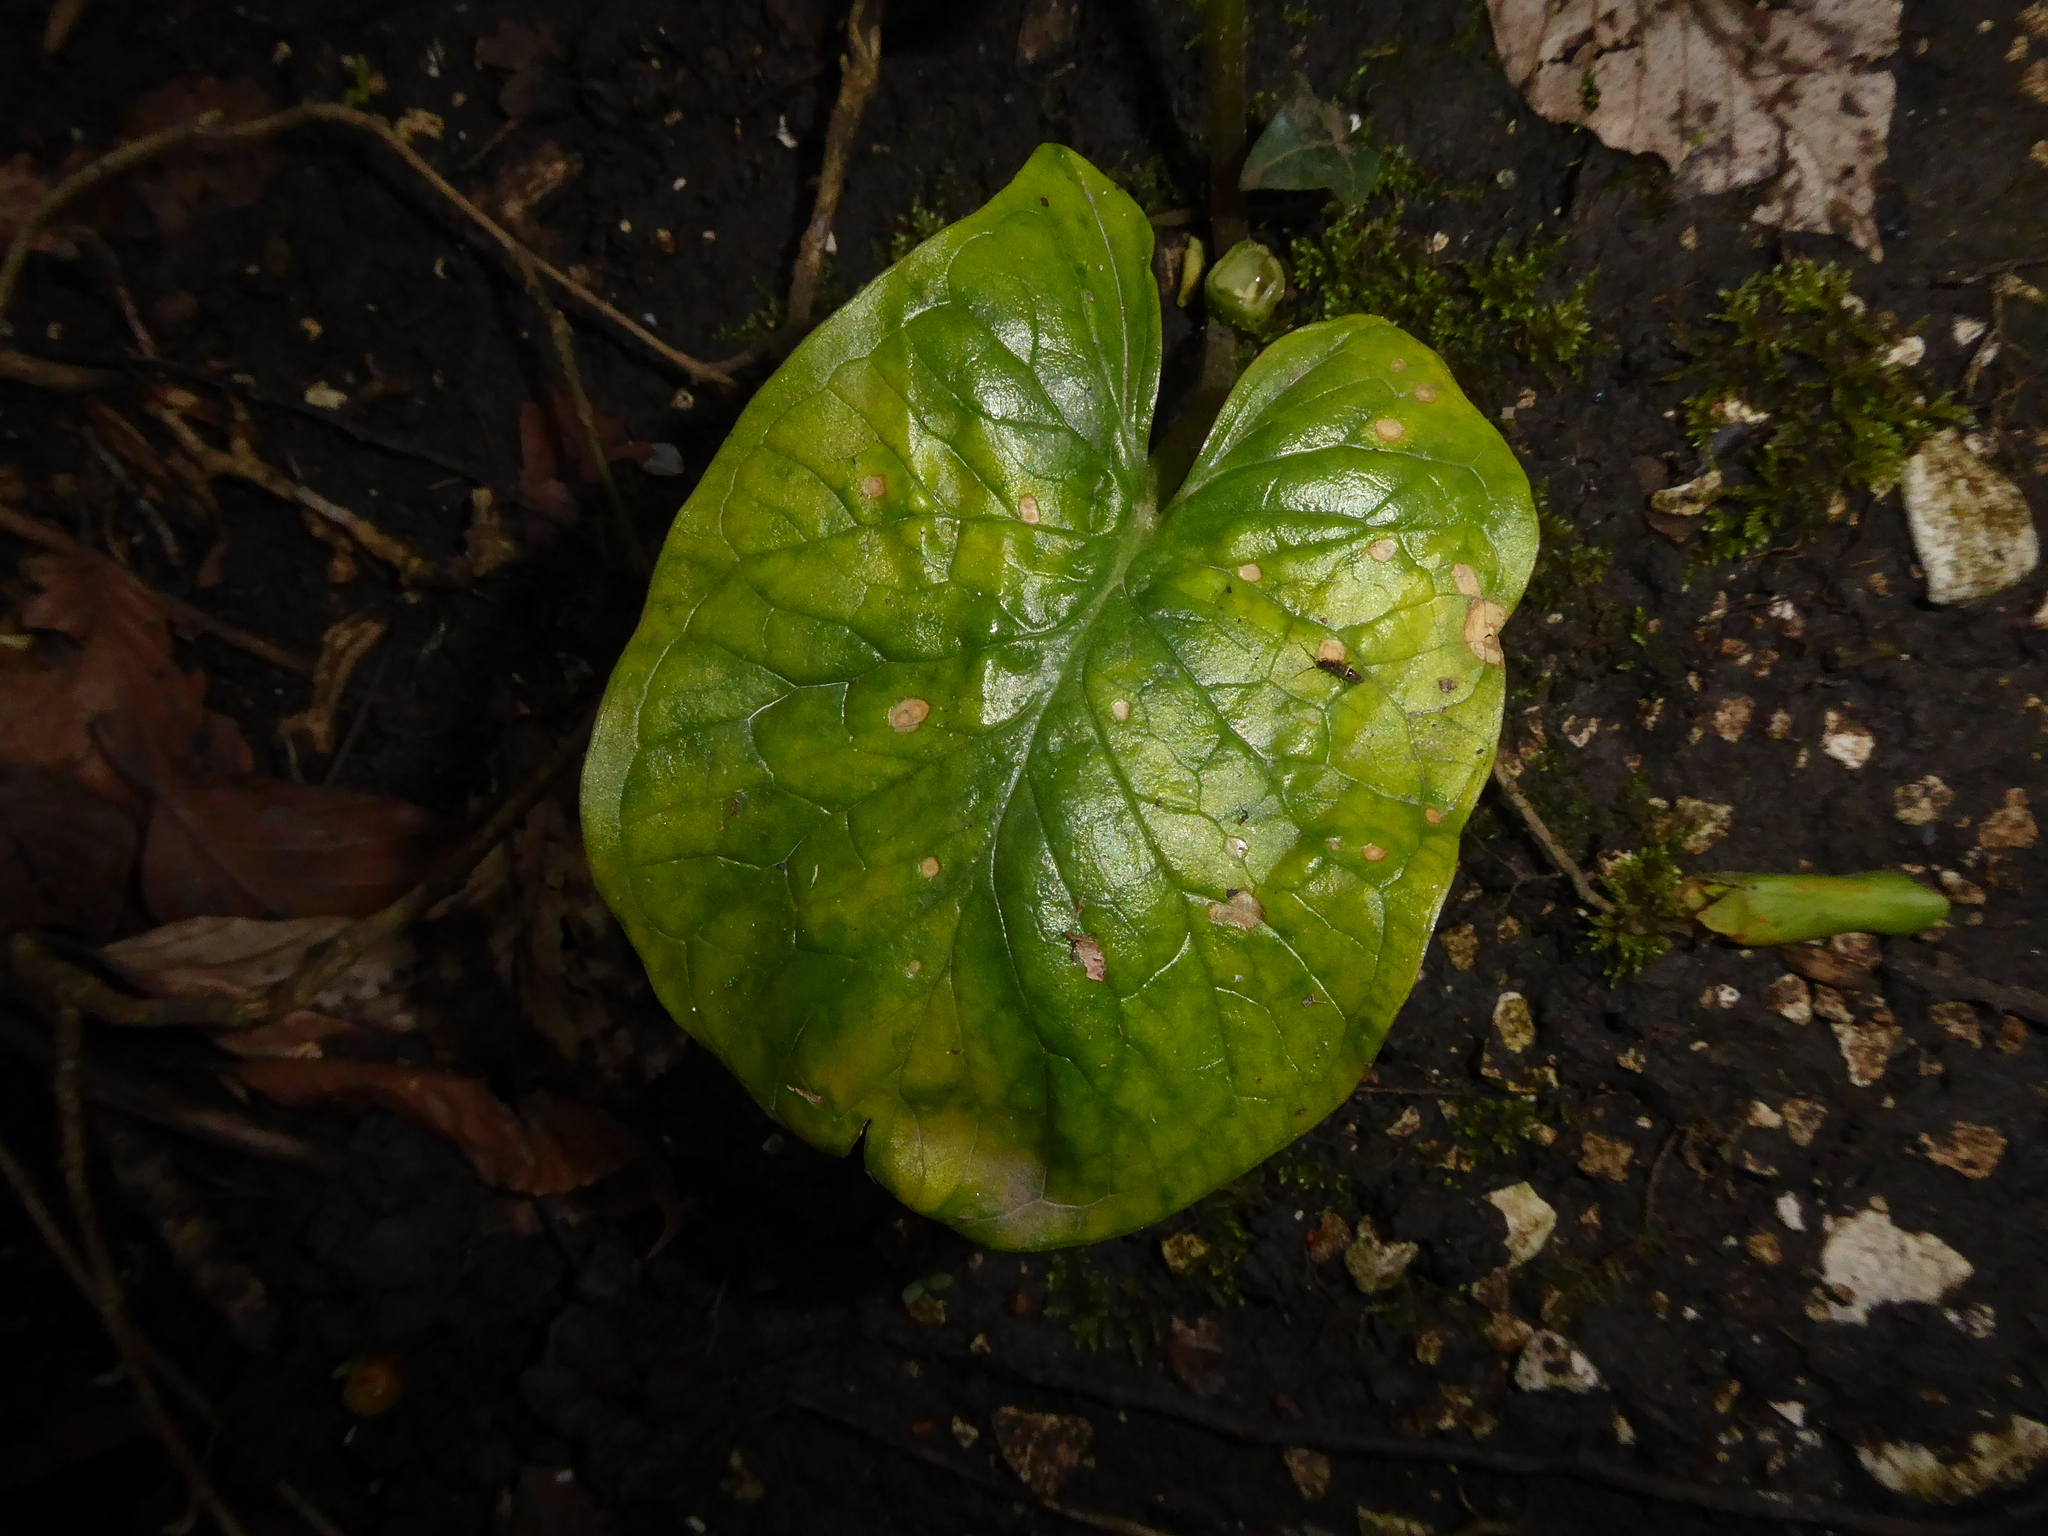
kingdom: Plantae
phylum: Tracheophyta
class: Liliopsida
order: Alismatales
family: Araceae
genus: Arum
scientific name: Arum maculatum
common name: Lords-and-ladies
